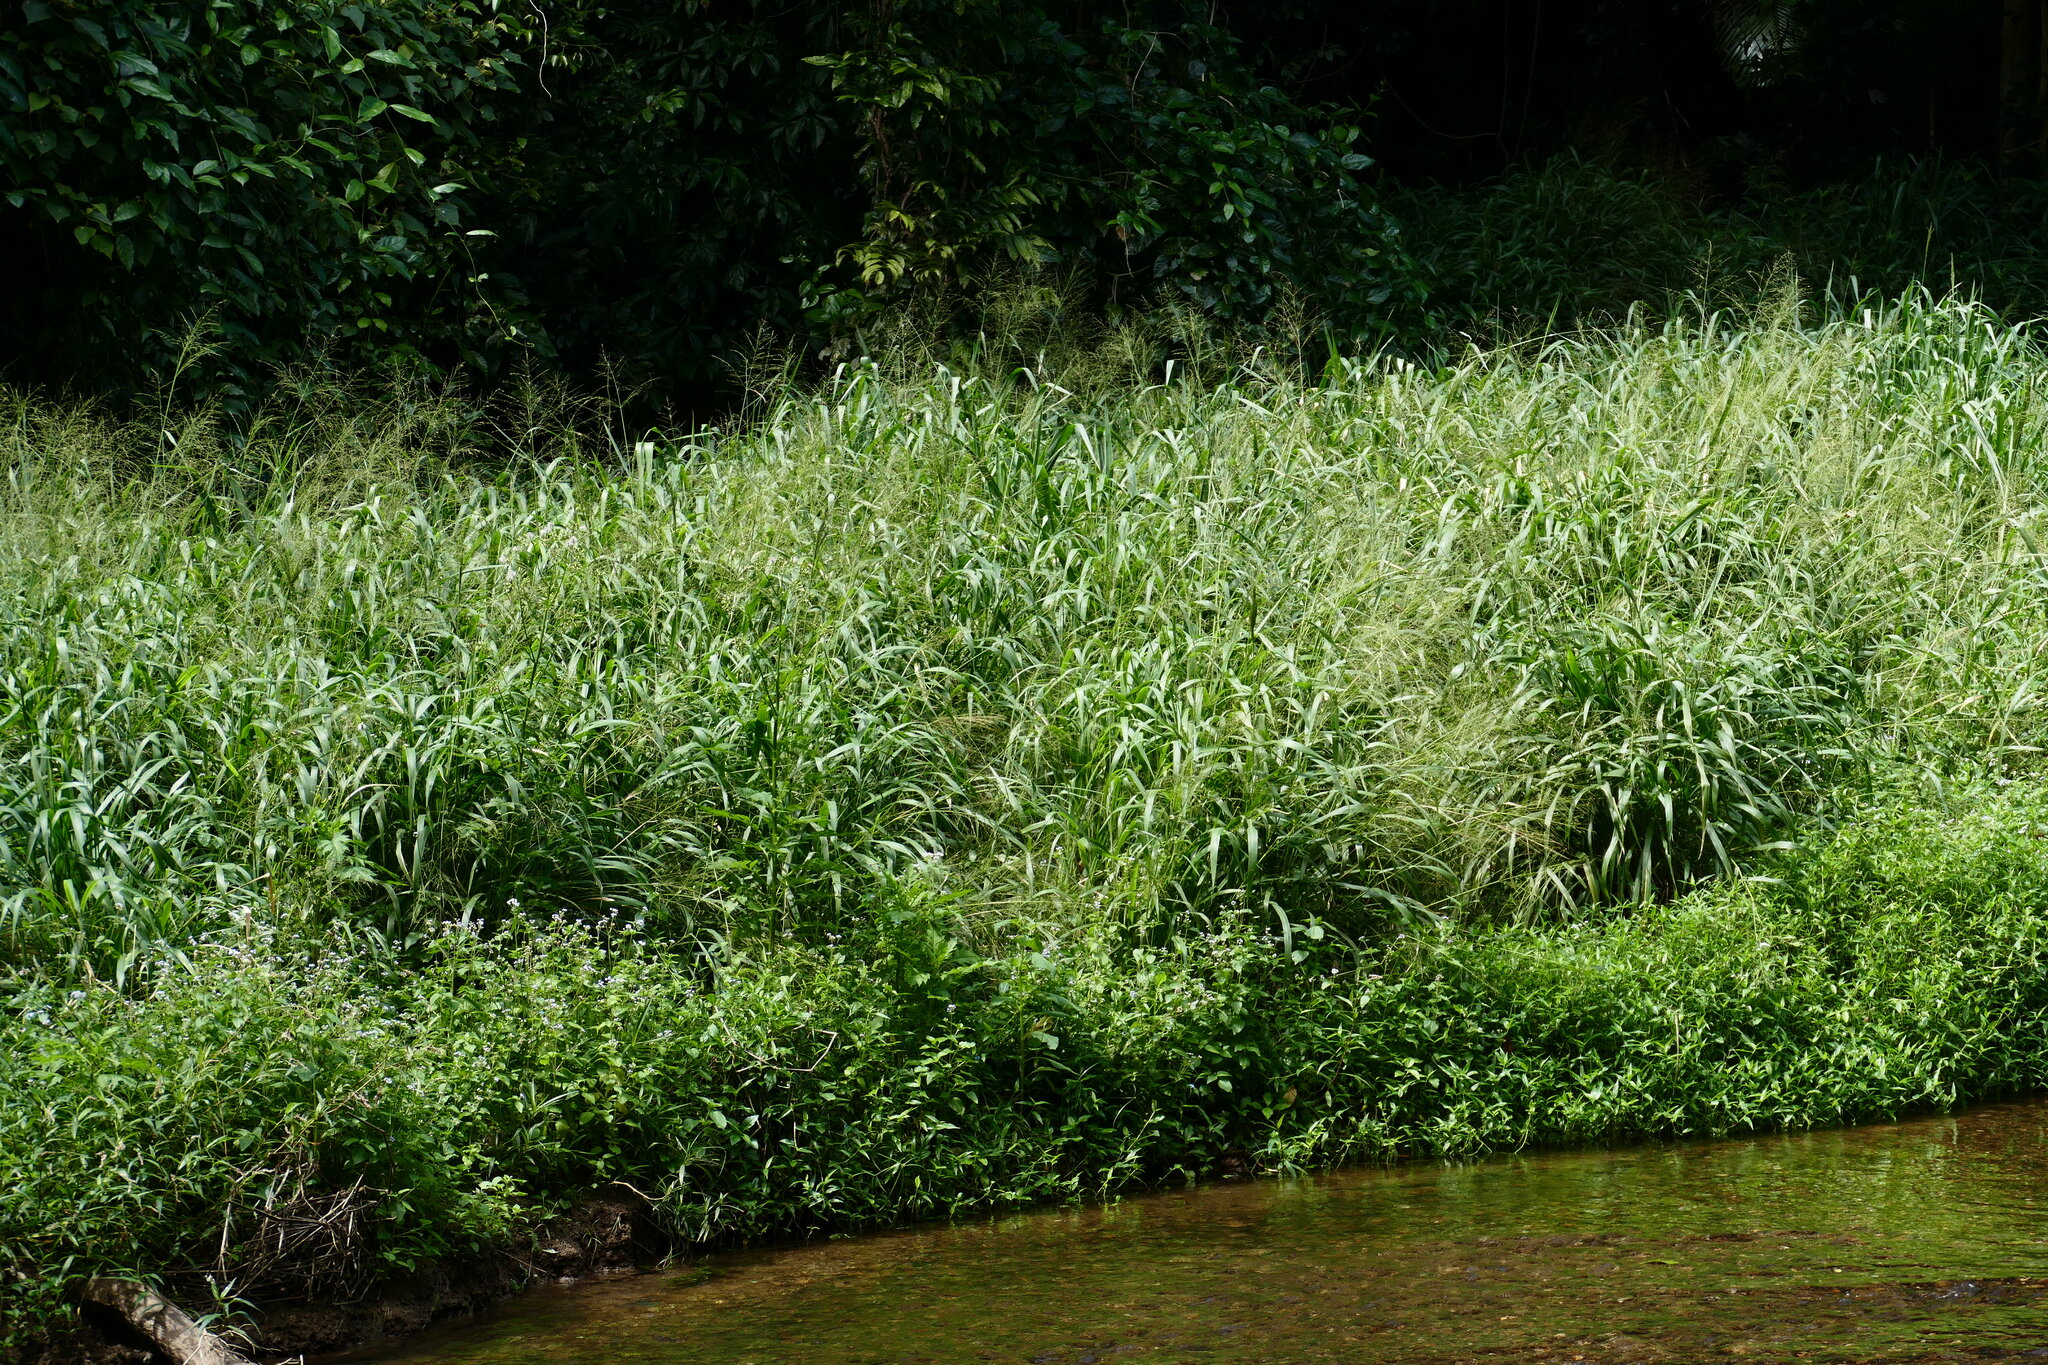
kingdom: Plantae
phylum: Tracheophyta
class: Liliopsida
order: Poales
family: Poaceae
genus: Megathyrsus
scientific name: Megathyrsus maximus
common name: Guineagrass
